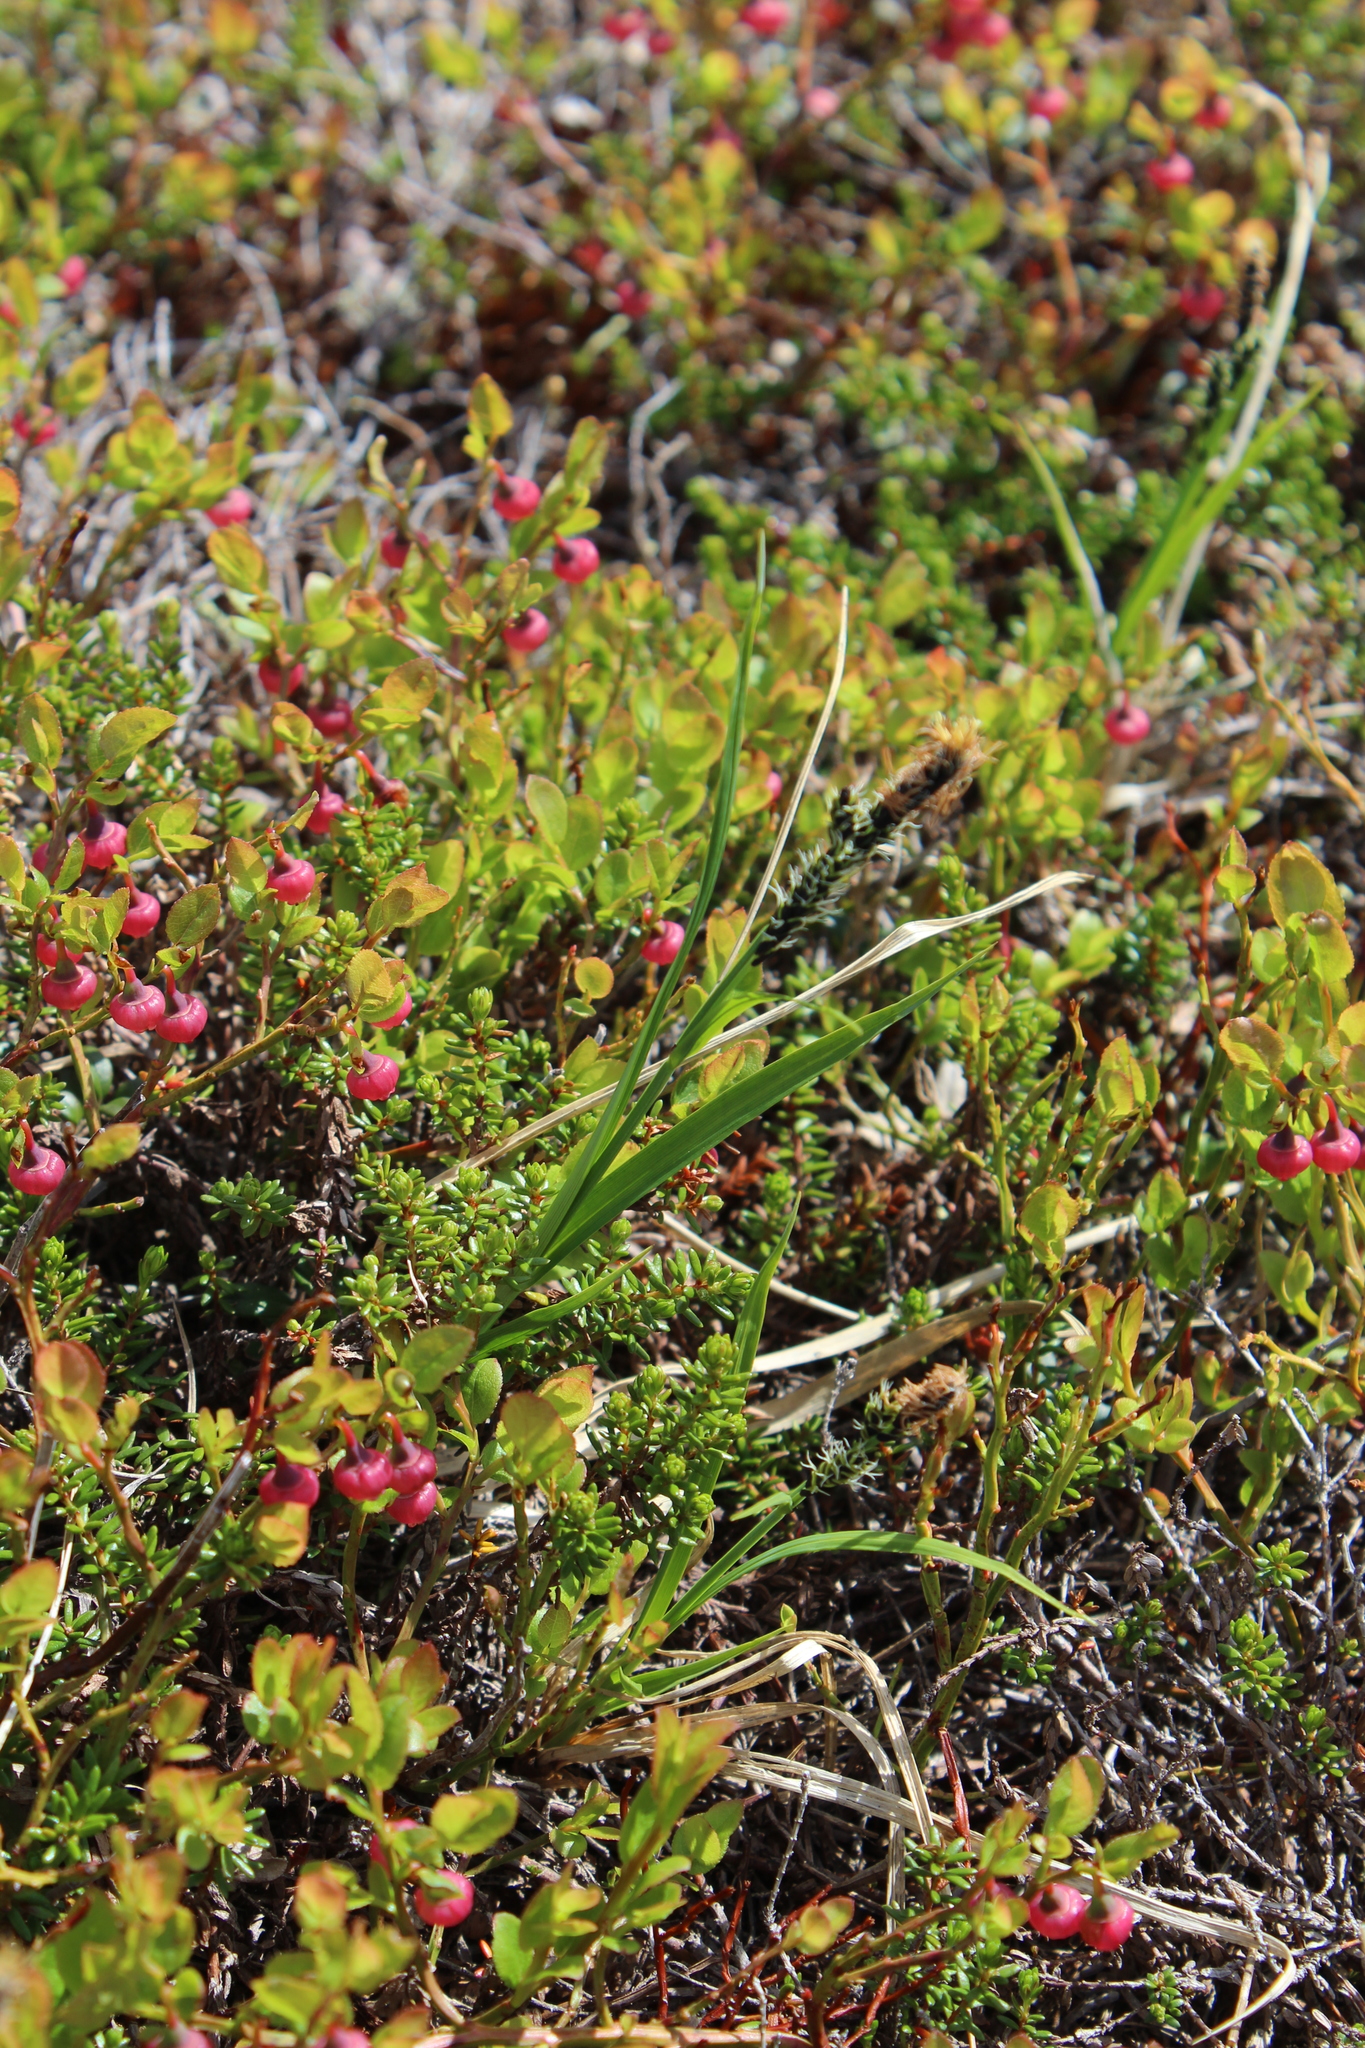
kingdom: Plantae
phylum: Tracheophyta
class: Liliopsida
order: Poales
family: Cyperaceae
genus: Carex
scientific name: Carex bigelowii
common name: Stiff sedge
